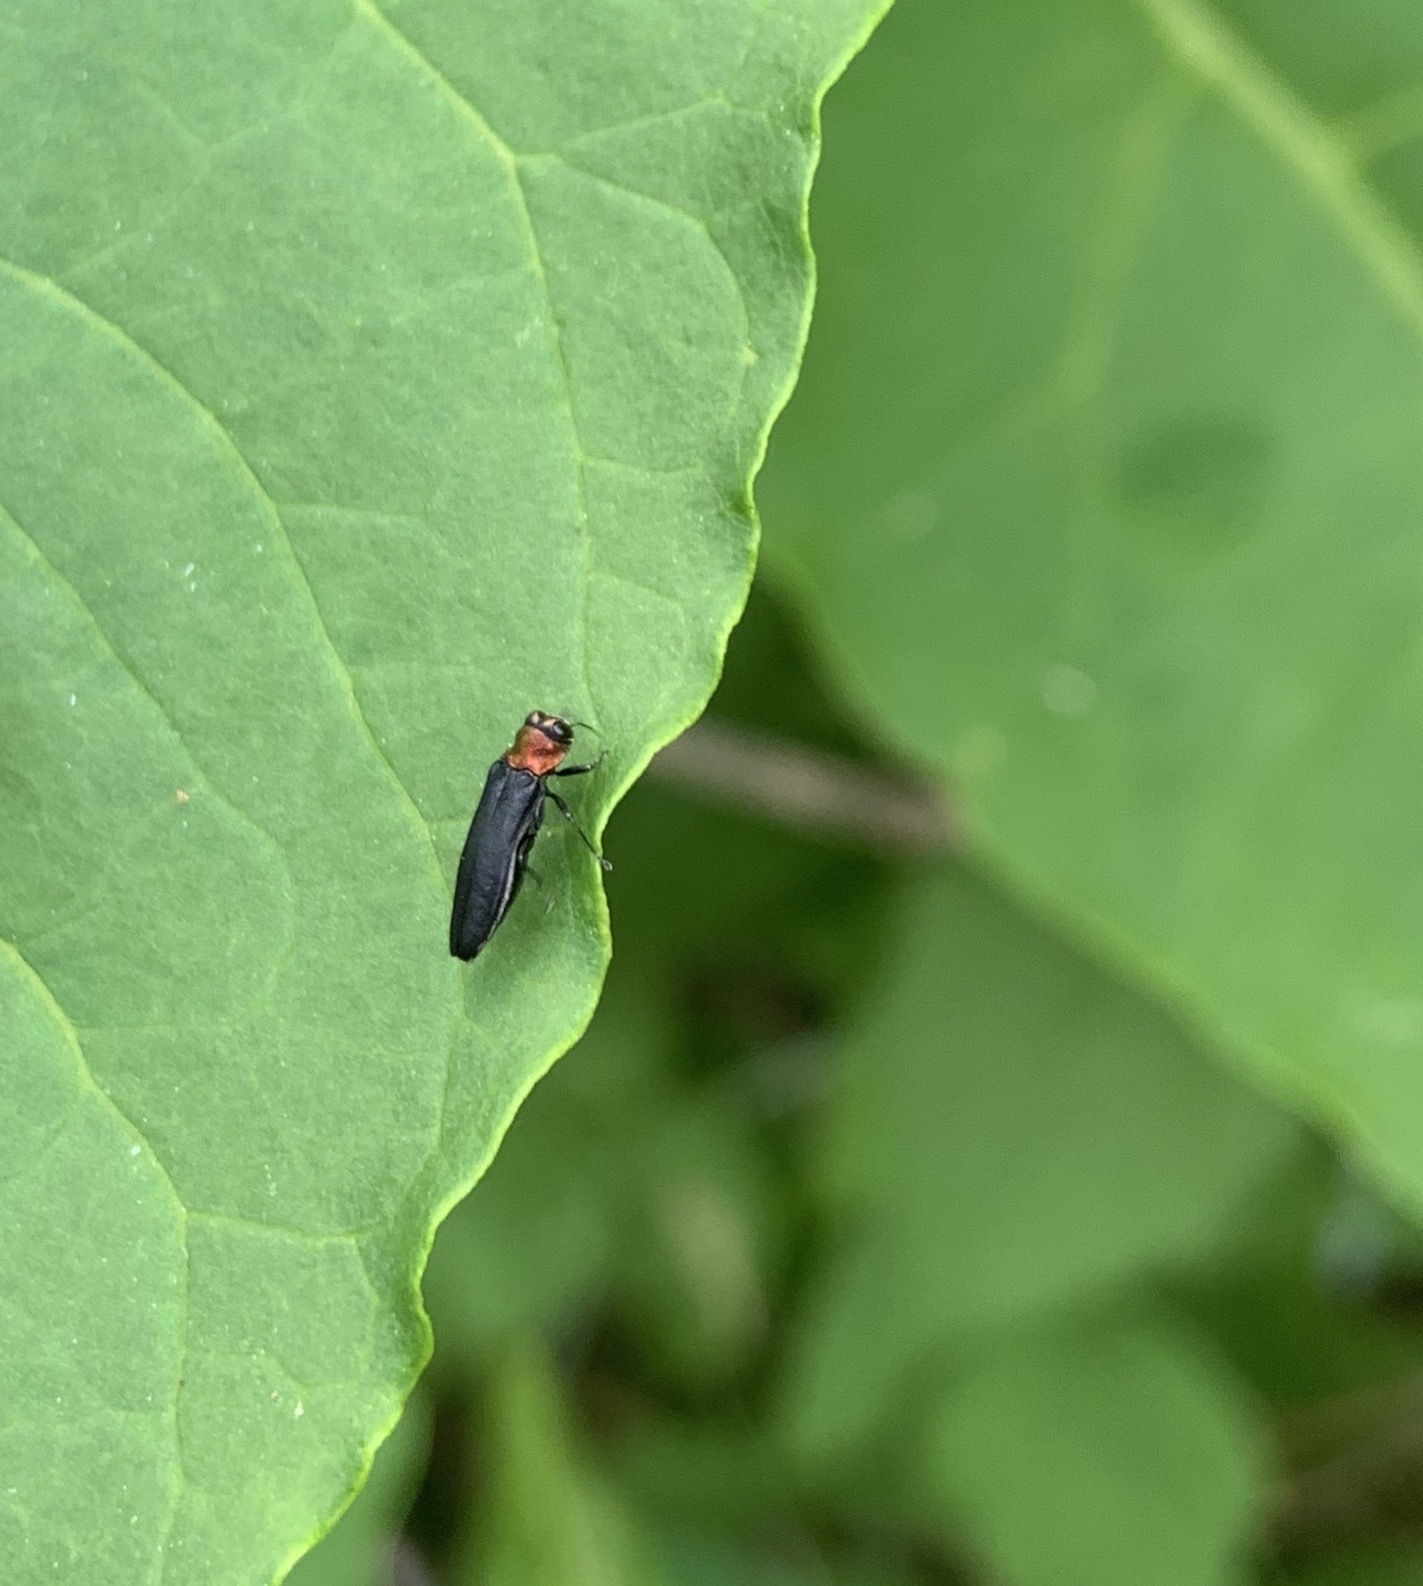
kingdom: Animalia
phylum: Arthropoda
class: Insecta
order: Coleoptera
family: Buprestidae
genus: Agrilus
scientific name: Agrilus ruficollis
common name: Red-necked cane borer beetle
